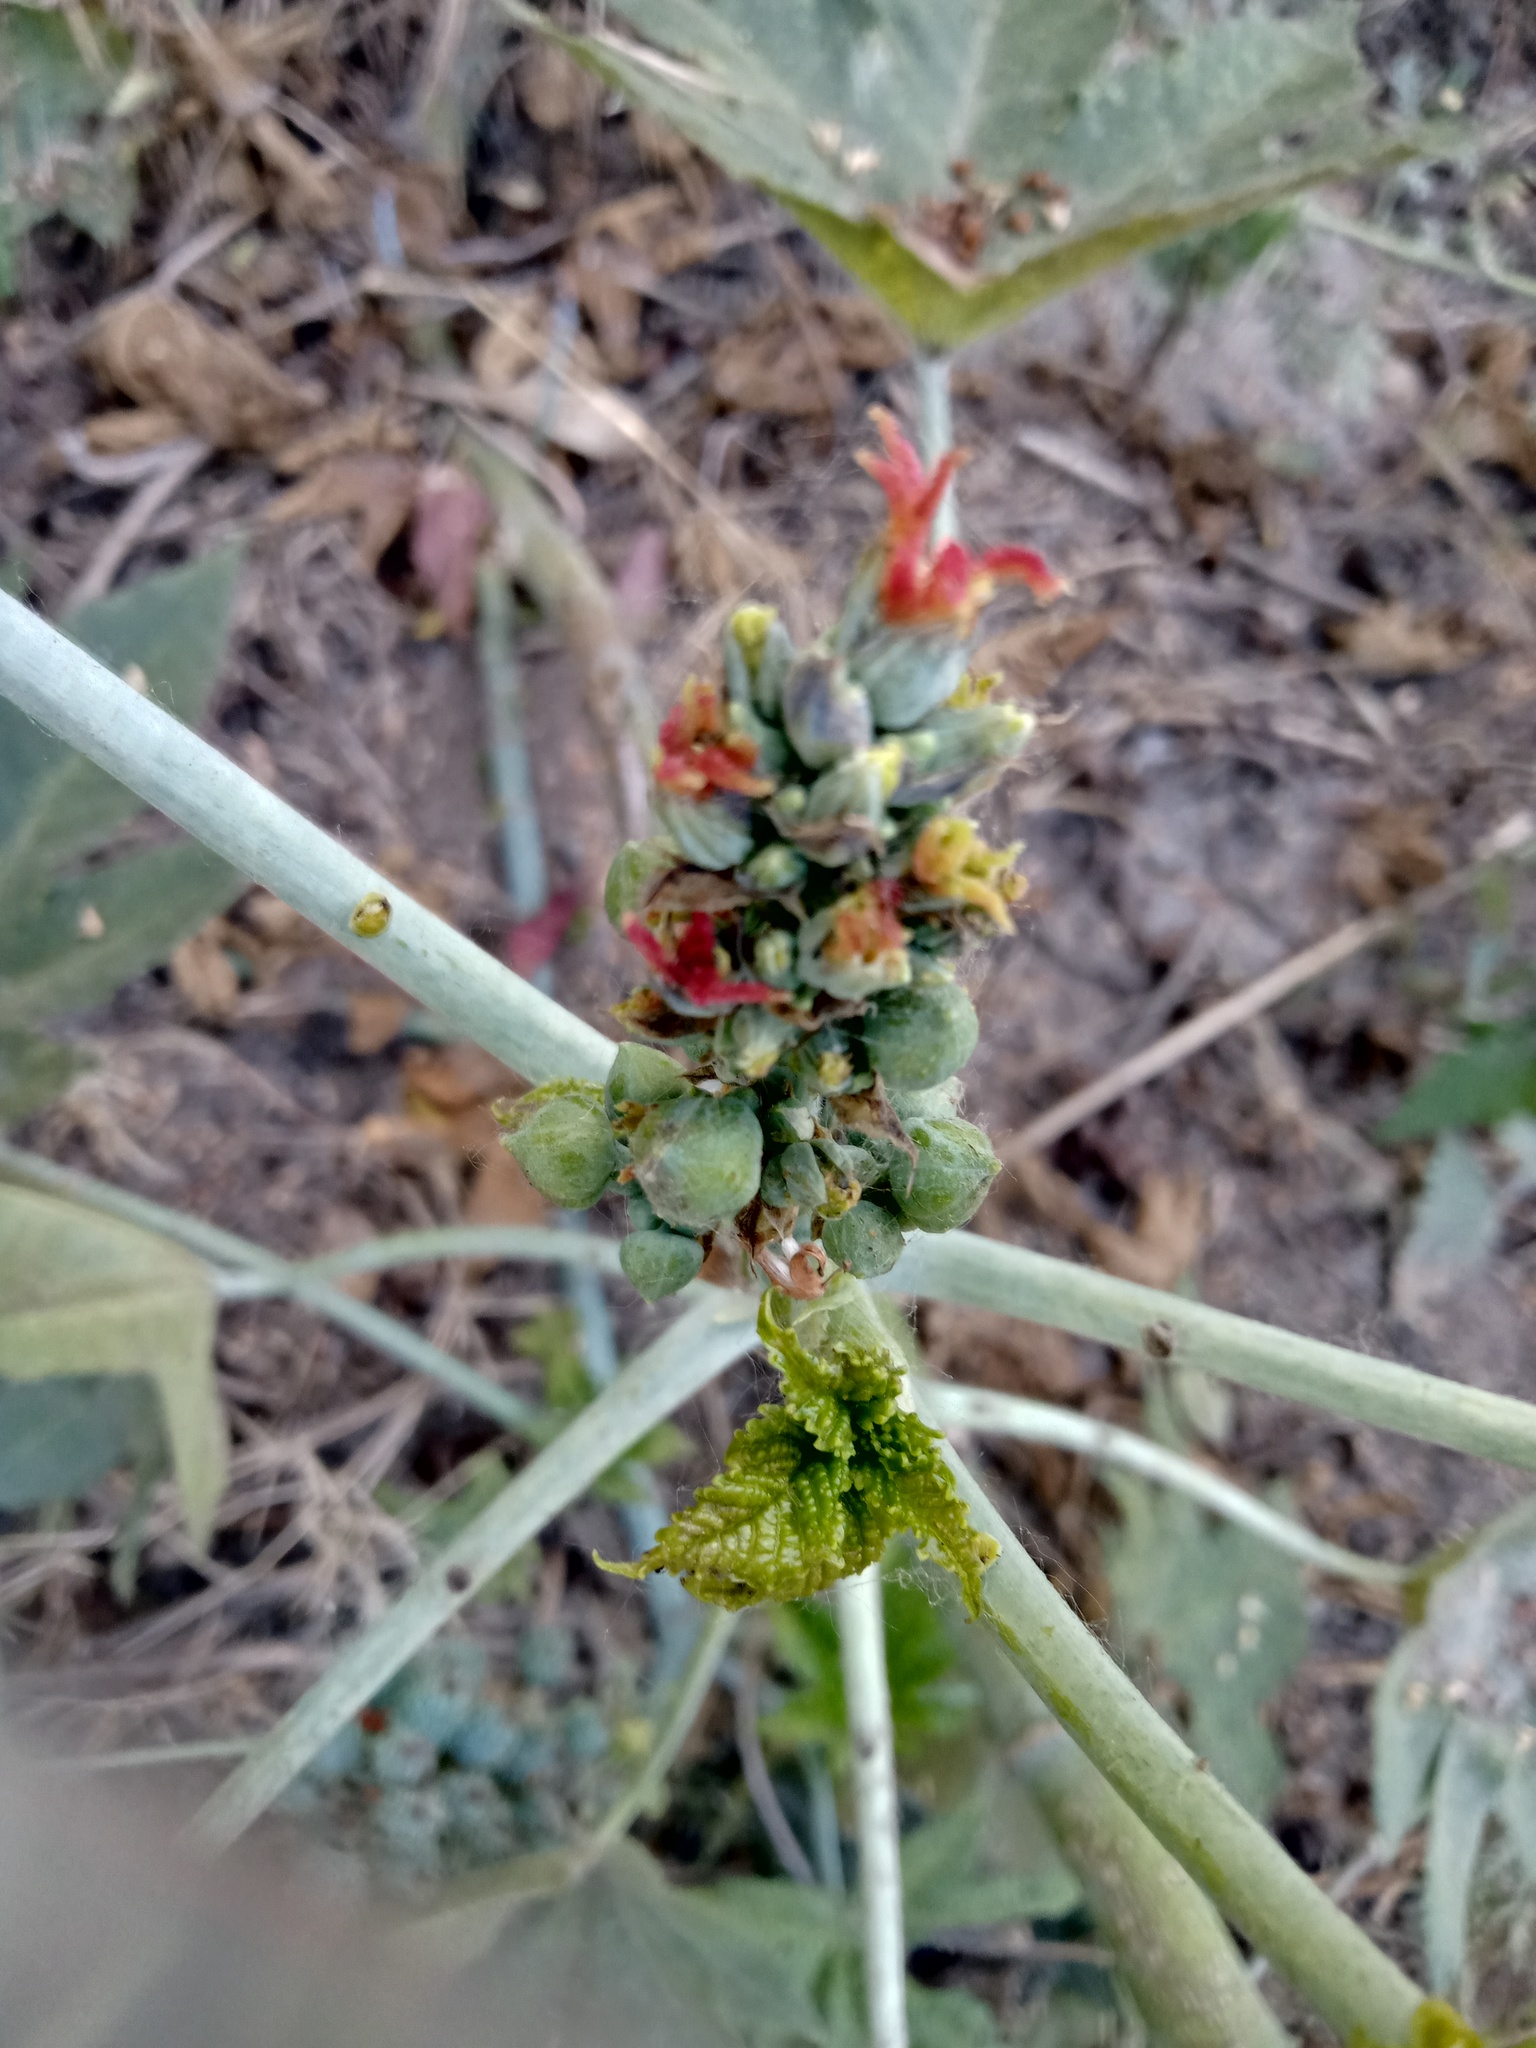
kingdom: Plantae
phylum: Tracheophyta
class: Magnoliopsida
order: Malpighiales
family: Euphorbiaceae
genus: Ricinus
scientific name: Ricinus communis
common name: Castor-oil-plant
